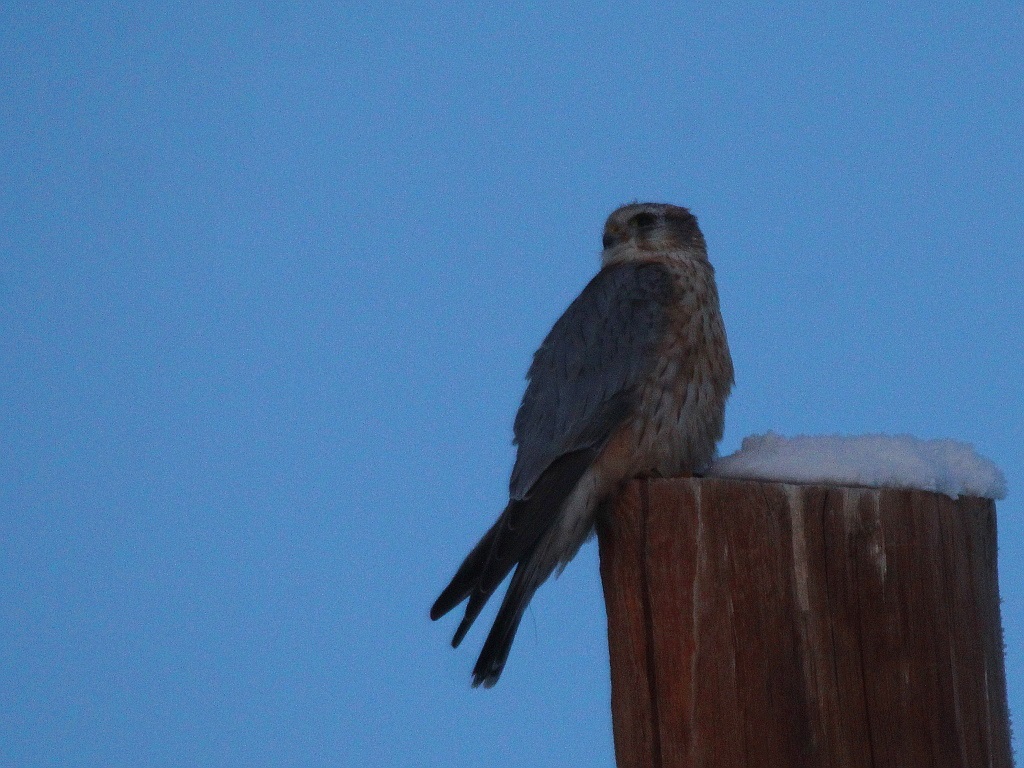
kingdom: Animalia
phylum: Chordata
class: Aves
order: Falconiformes
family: Falconidae
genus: Falco
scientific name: Falco columbarius
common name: Merlin
